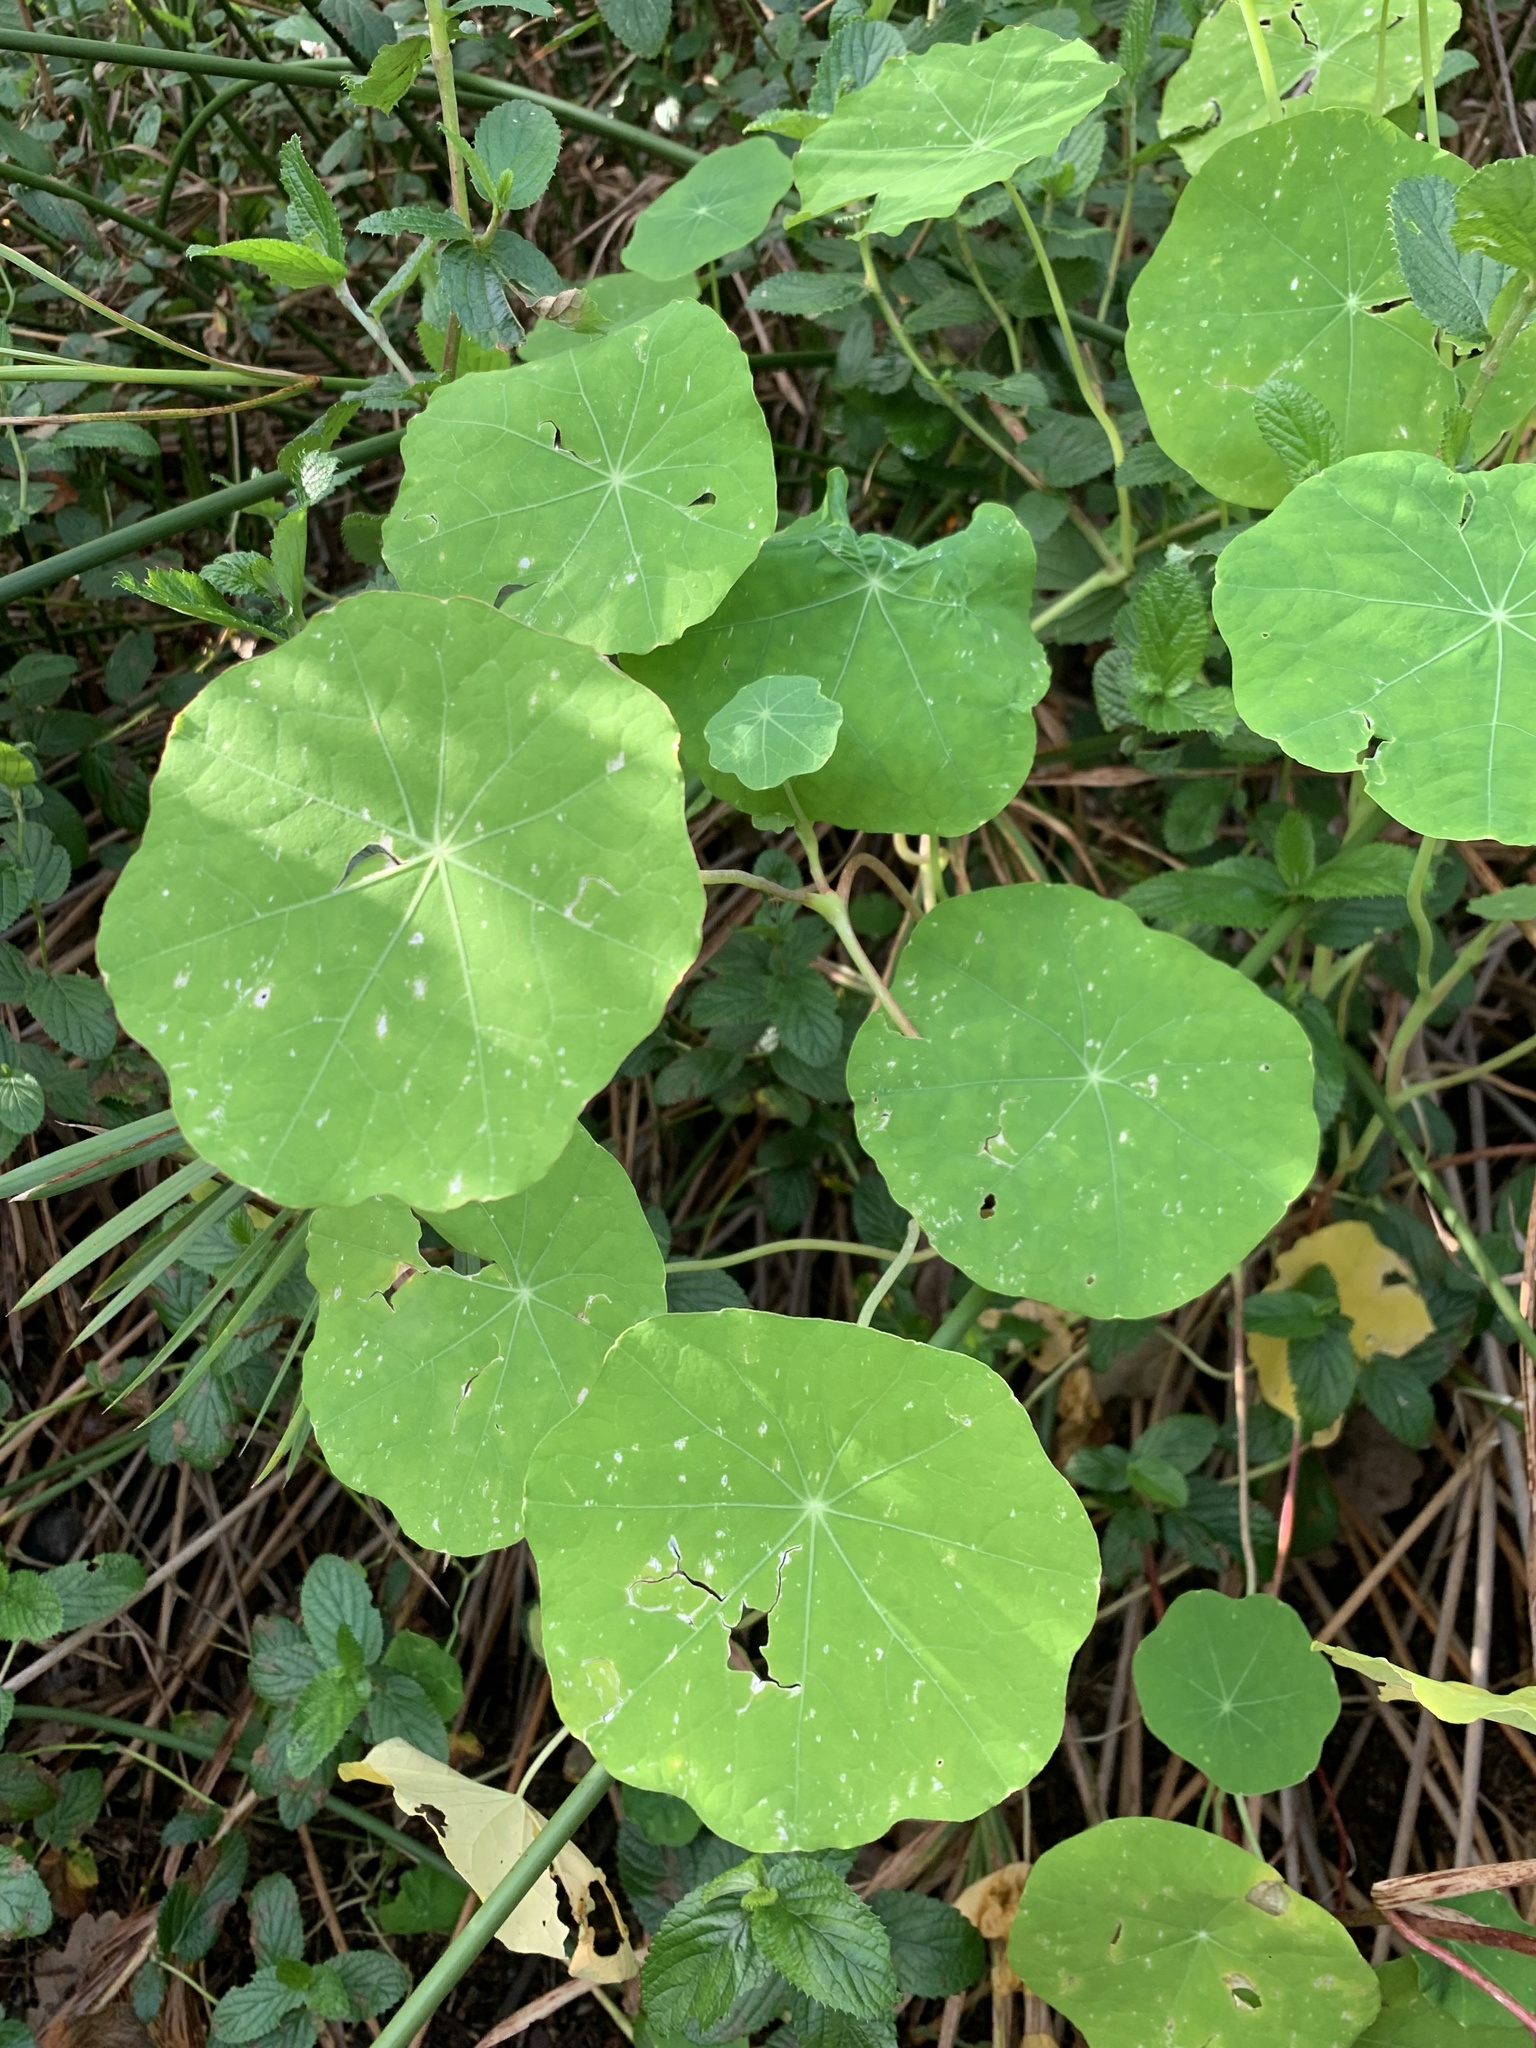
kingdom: Plantae
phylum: Tracheophyta
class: Magnoliopsida
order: Brassicales
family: Tropaeolaceae
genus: Tropaeolum
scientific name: Tropaeolum majus
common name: Nasturtium
